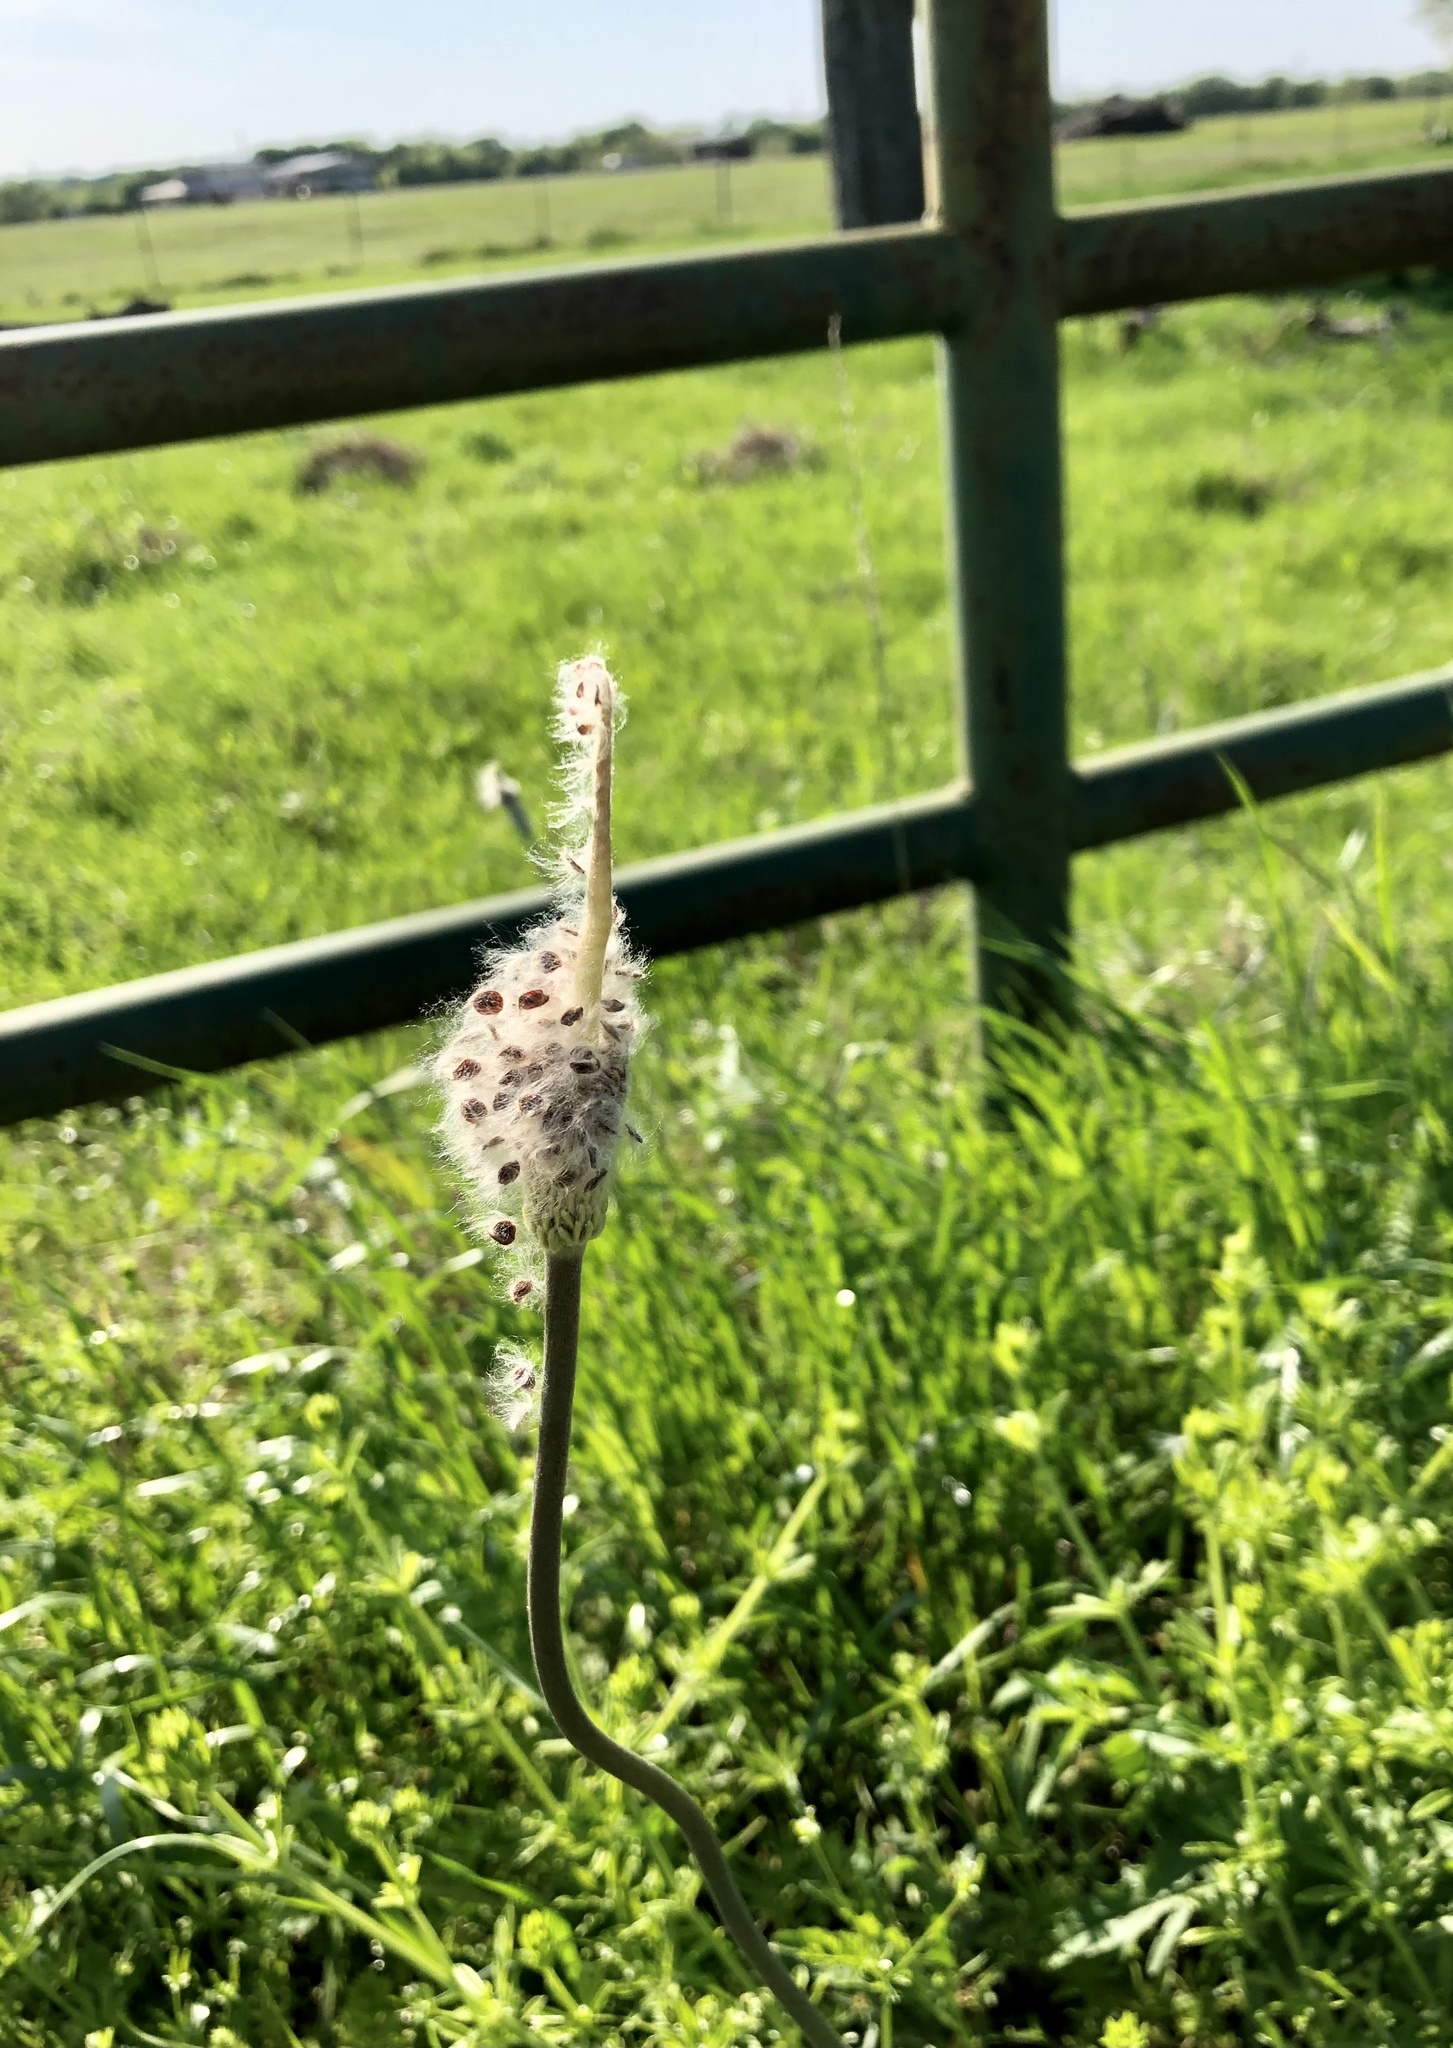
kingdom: Plantae
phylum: Tracheophyta
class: Magnoliopsida
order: Ranunculales
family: Ranunculaceae
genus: Anemone
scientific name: Anemone berlandieri
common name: Ten-petal anemone
